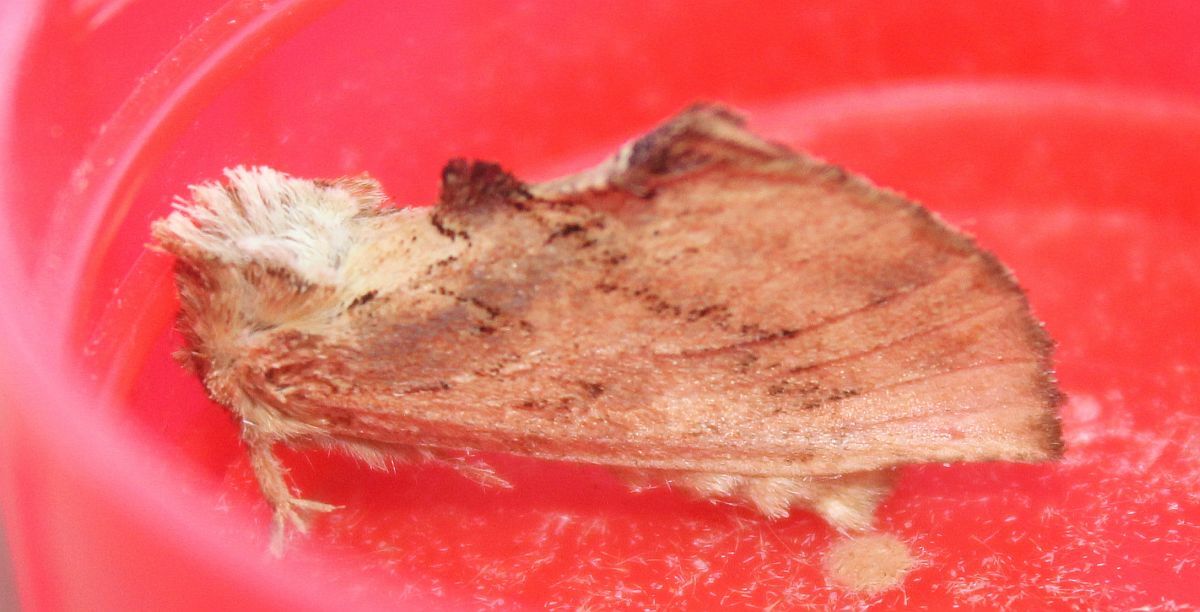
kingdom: Animalia
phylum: Arthropoda
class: Insecta
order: Lepidoptera
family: Notodontidae
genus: Ptilodon
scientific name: Ptilodon capucina
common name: Coxcomb prominent
